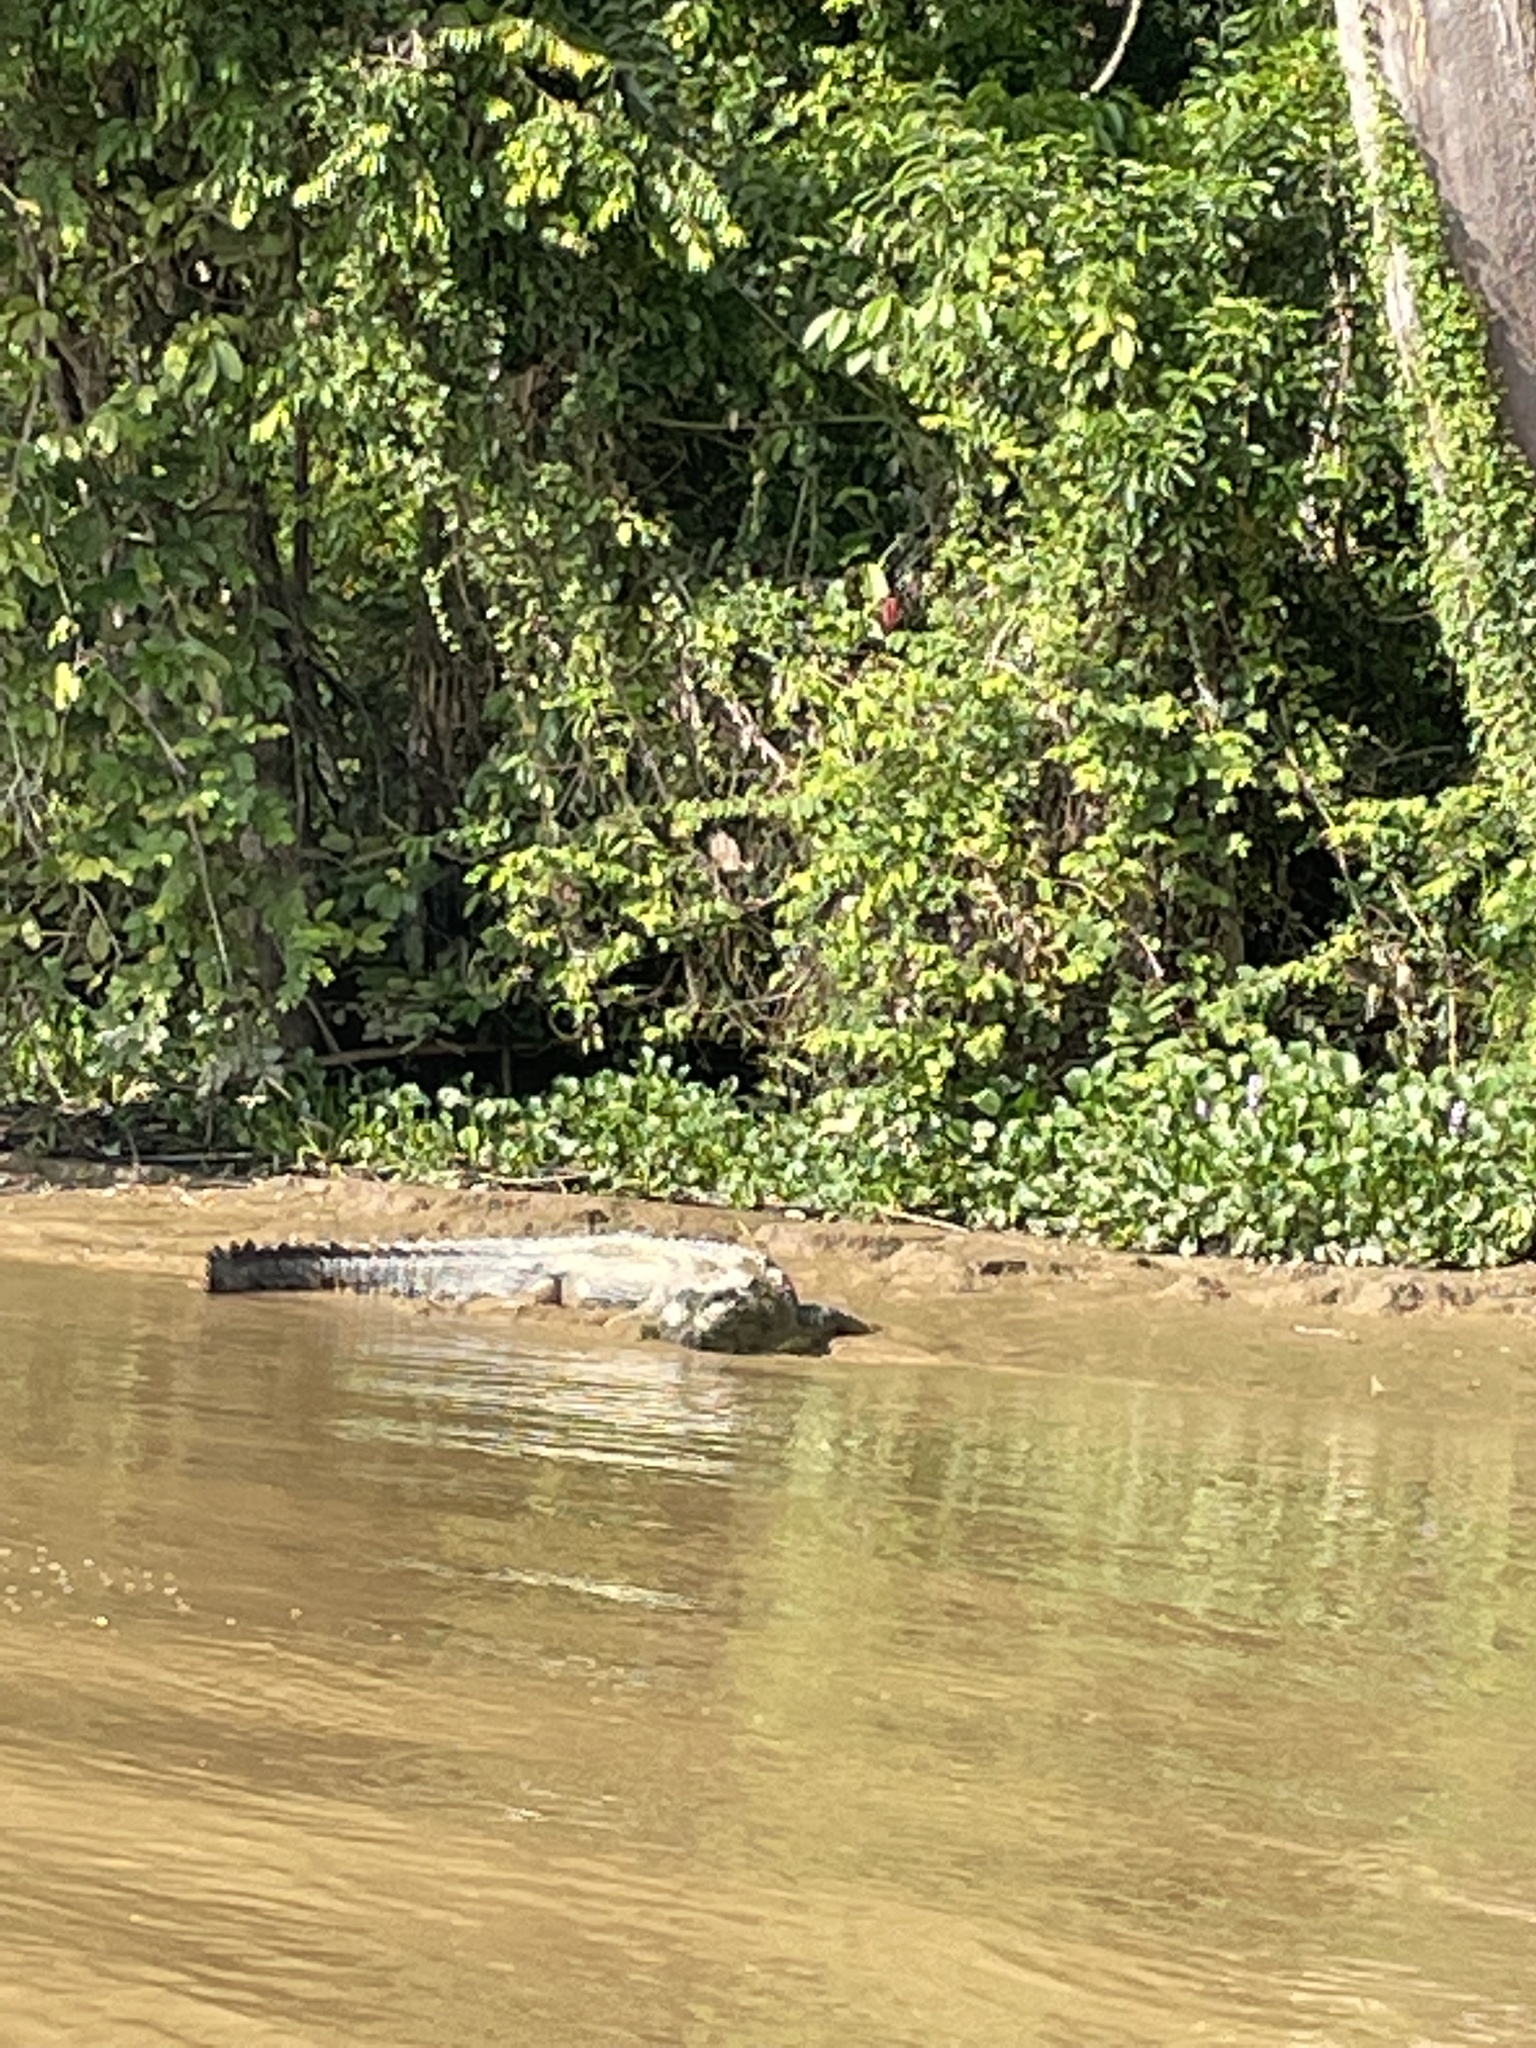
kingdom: Animalia
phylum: Chordata
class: Crocodylia
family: Crocodylidae
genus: Crocodylus
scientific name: Crocodylus porosus
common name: Saltwater crocodile
